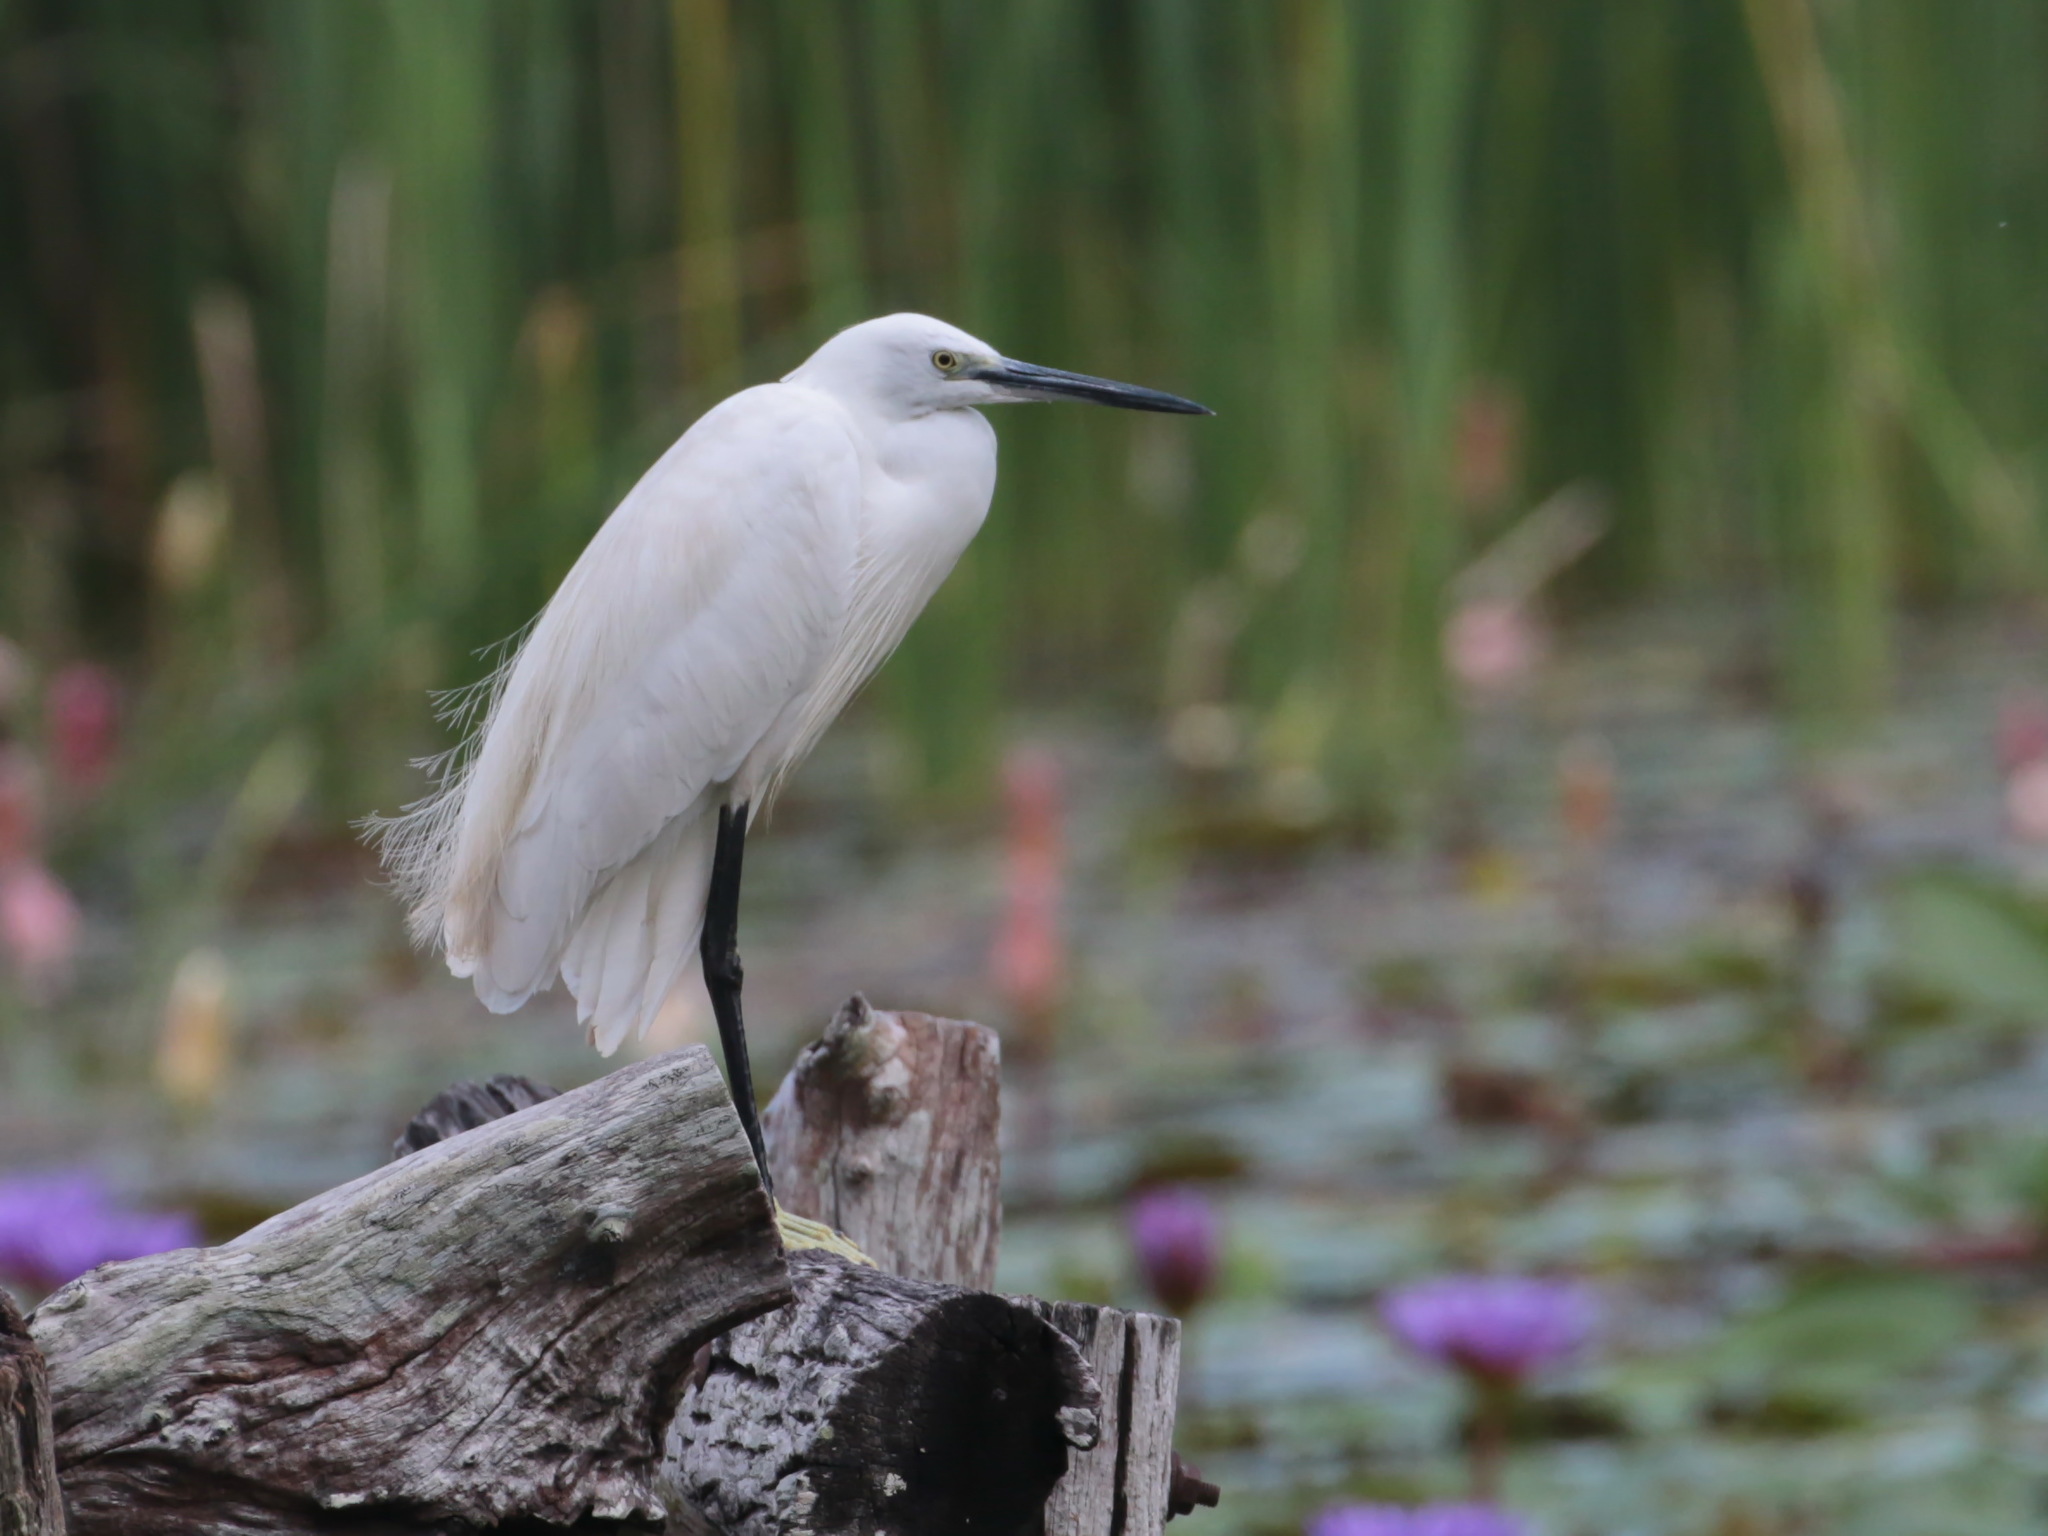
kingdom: Animalia
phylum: Chordata
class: Aves
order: Pelecaniformes
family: Ardeidae
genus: Egretta
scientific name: Egretta garzetta
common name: Little egret
